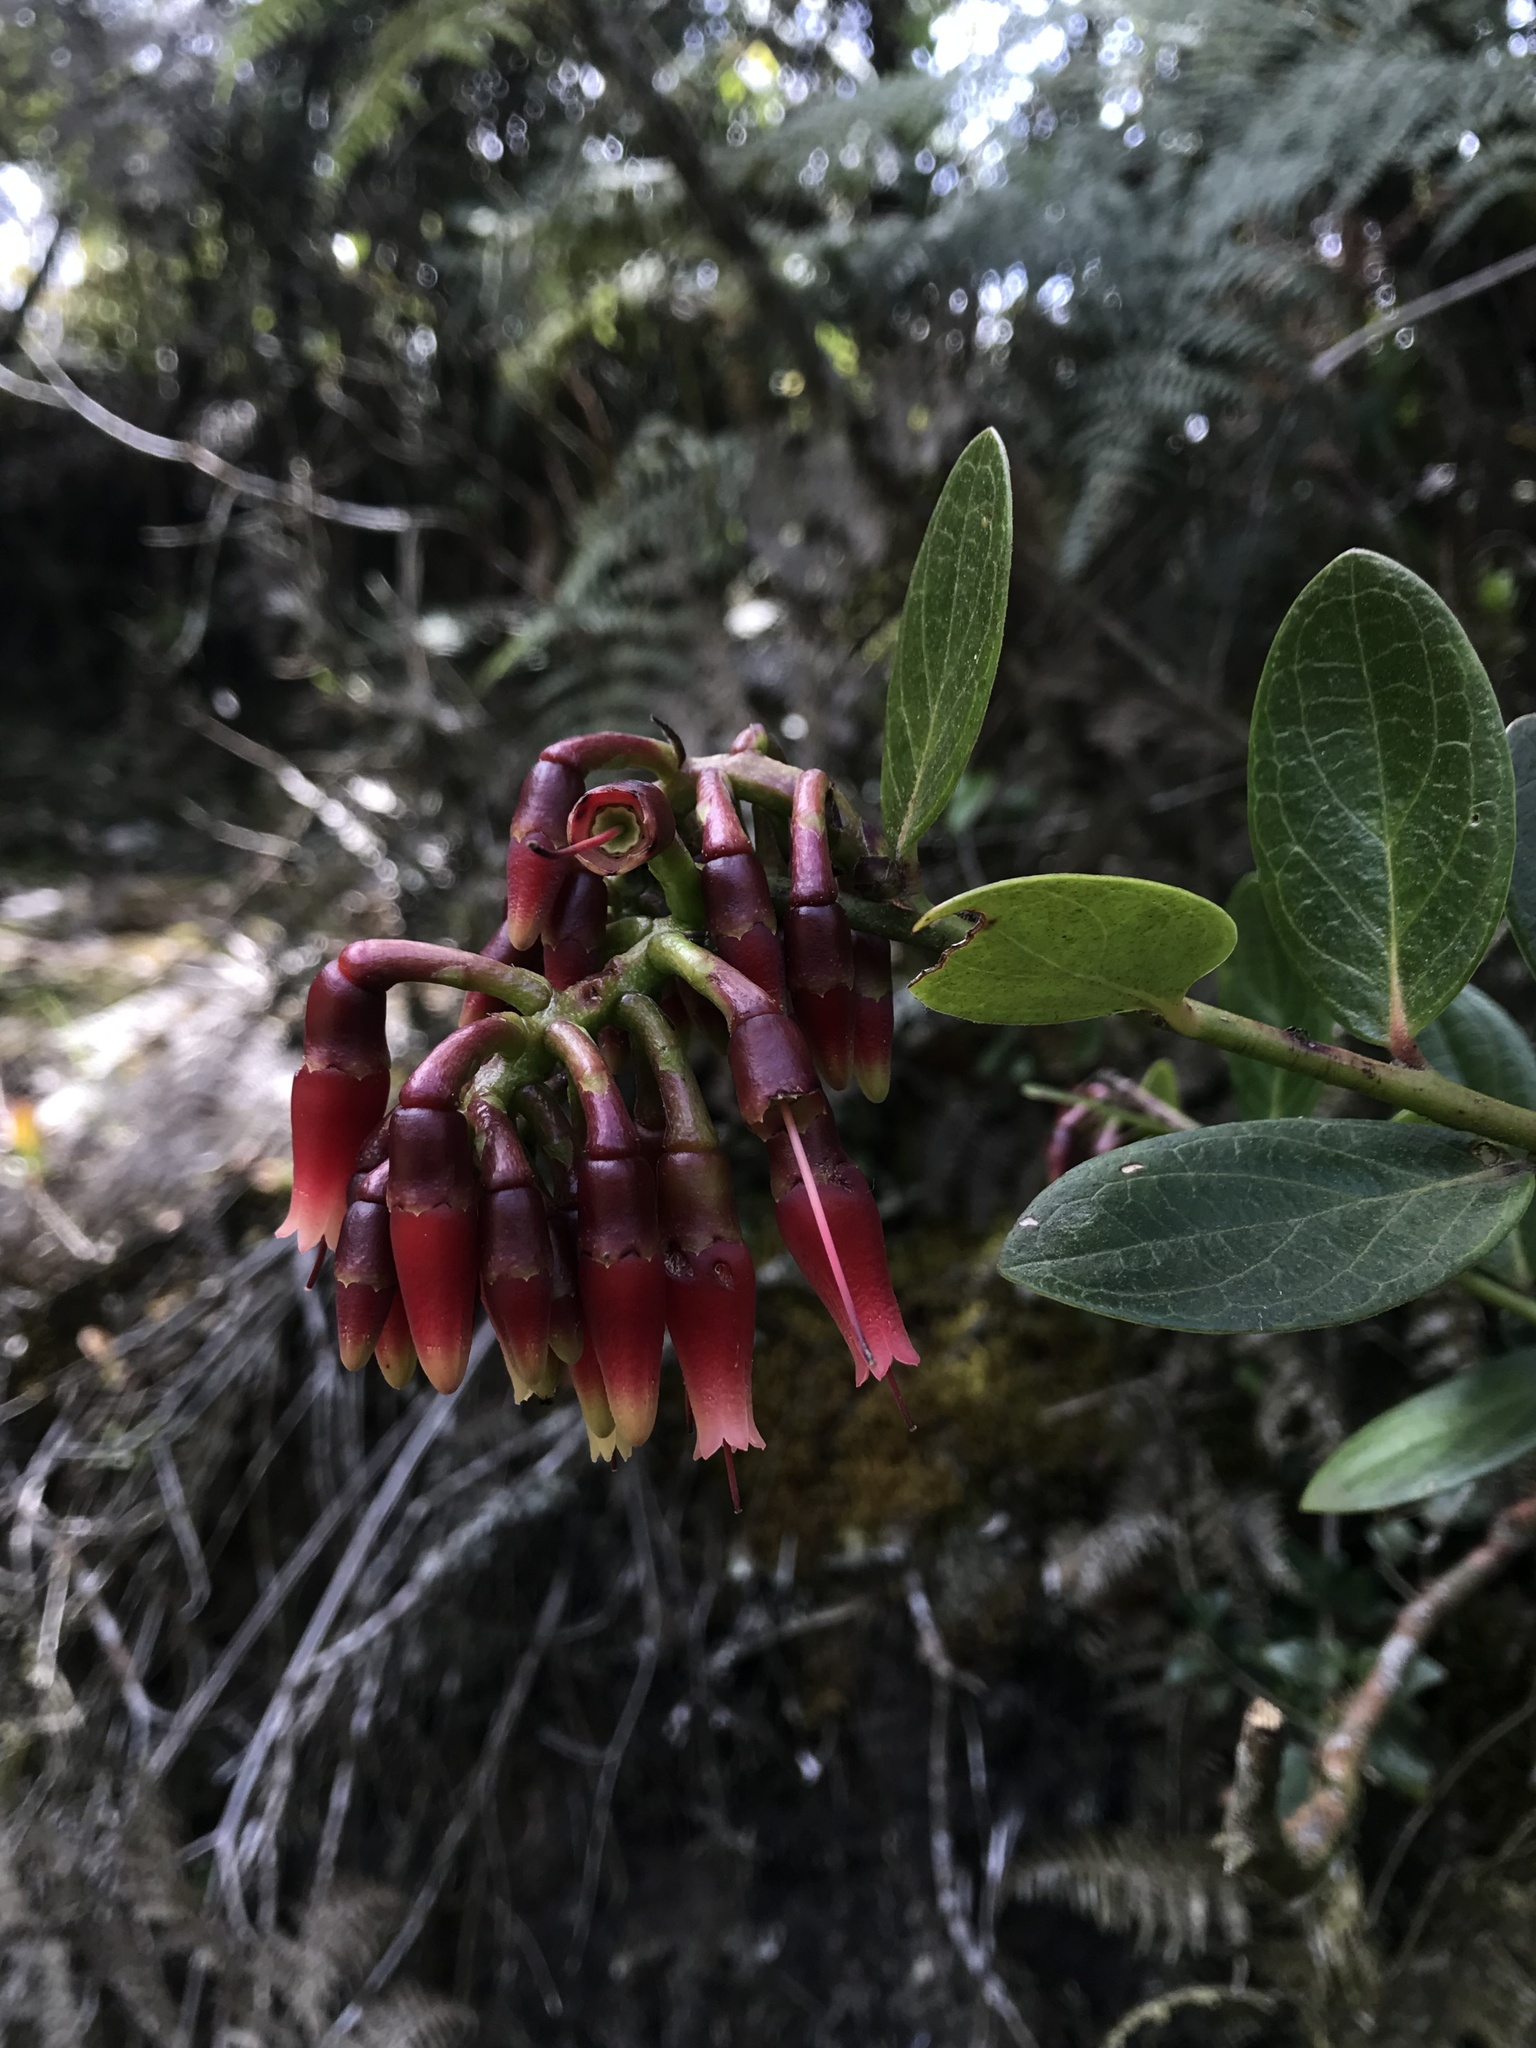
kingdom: Plantae
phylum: Tracheophyta
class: Magnoliopsida
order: Ericales
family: Ericaceae
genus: Macleania
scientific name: Macleania rupestris
